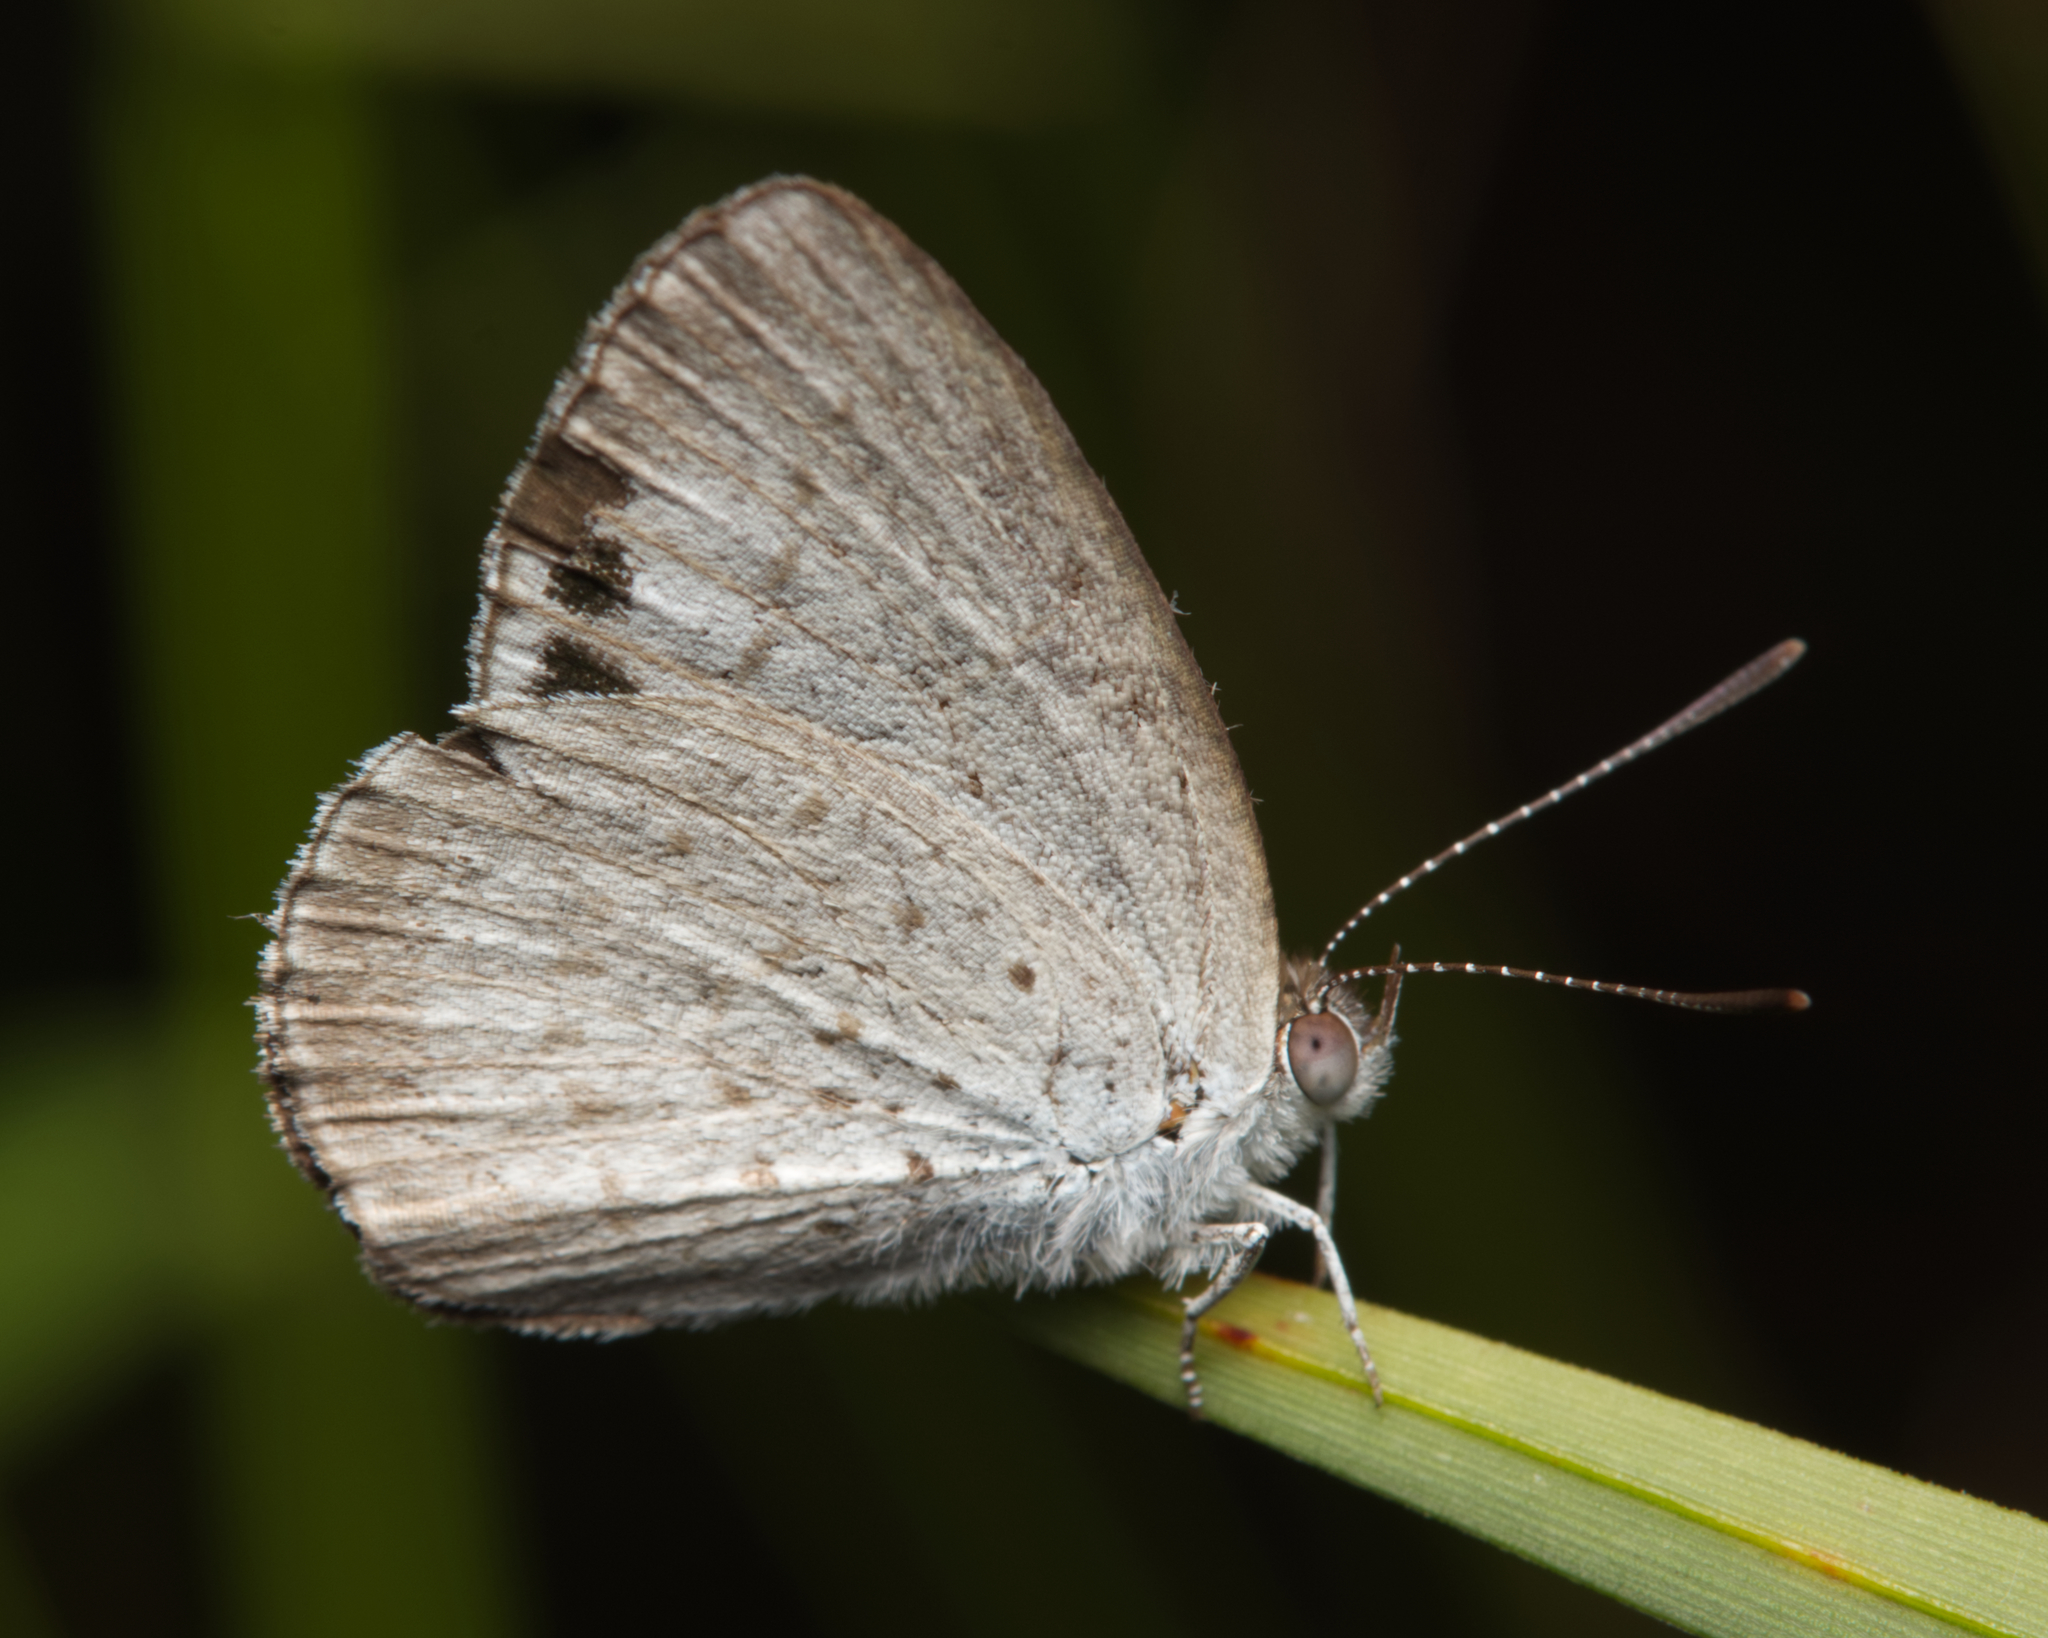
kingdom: Animalia
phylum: Arthropoda
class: Insecta
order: Lepidoptera
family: Lycaenidae
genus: Candalides
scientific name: Candalides
